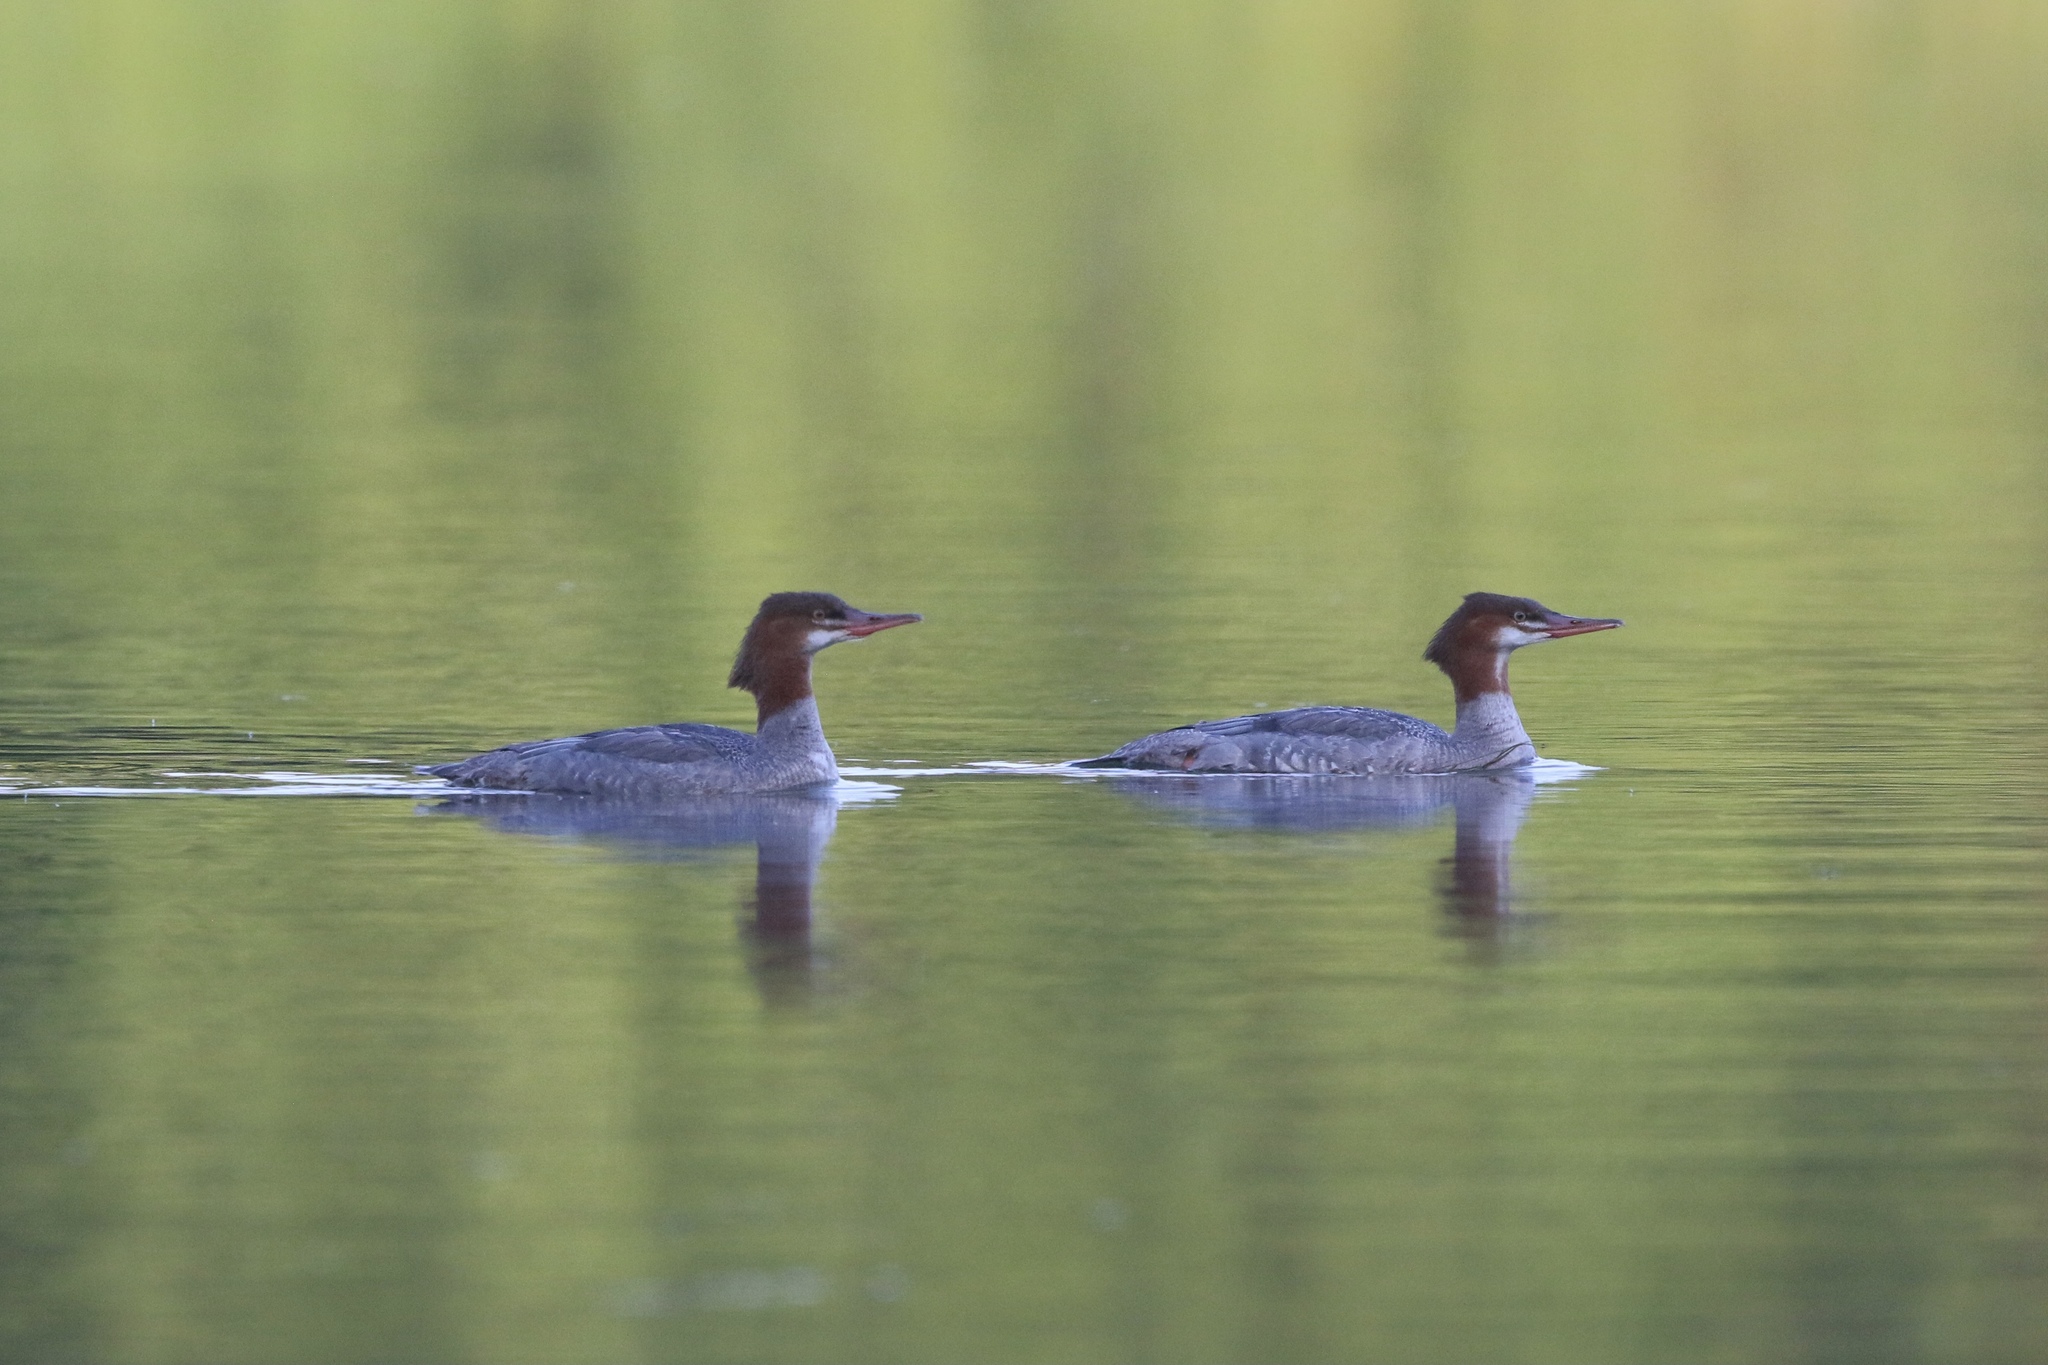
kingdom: Animalia
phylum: Chordata
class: Aves
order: Anseriformes
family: Anatidae
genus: Mergus
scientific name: Mergus merganser
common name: Common merganser
